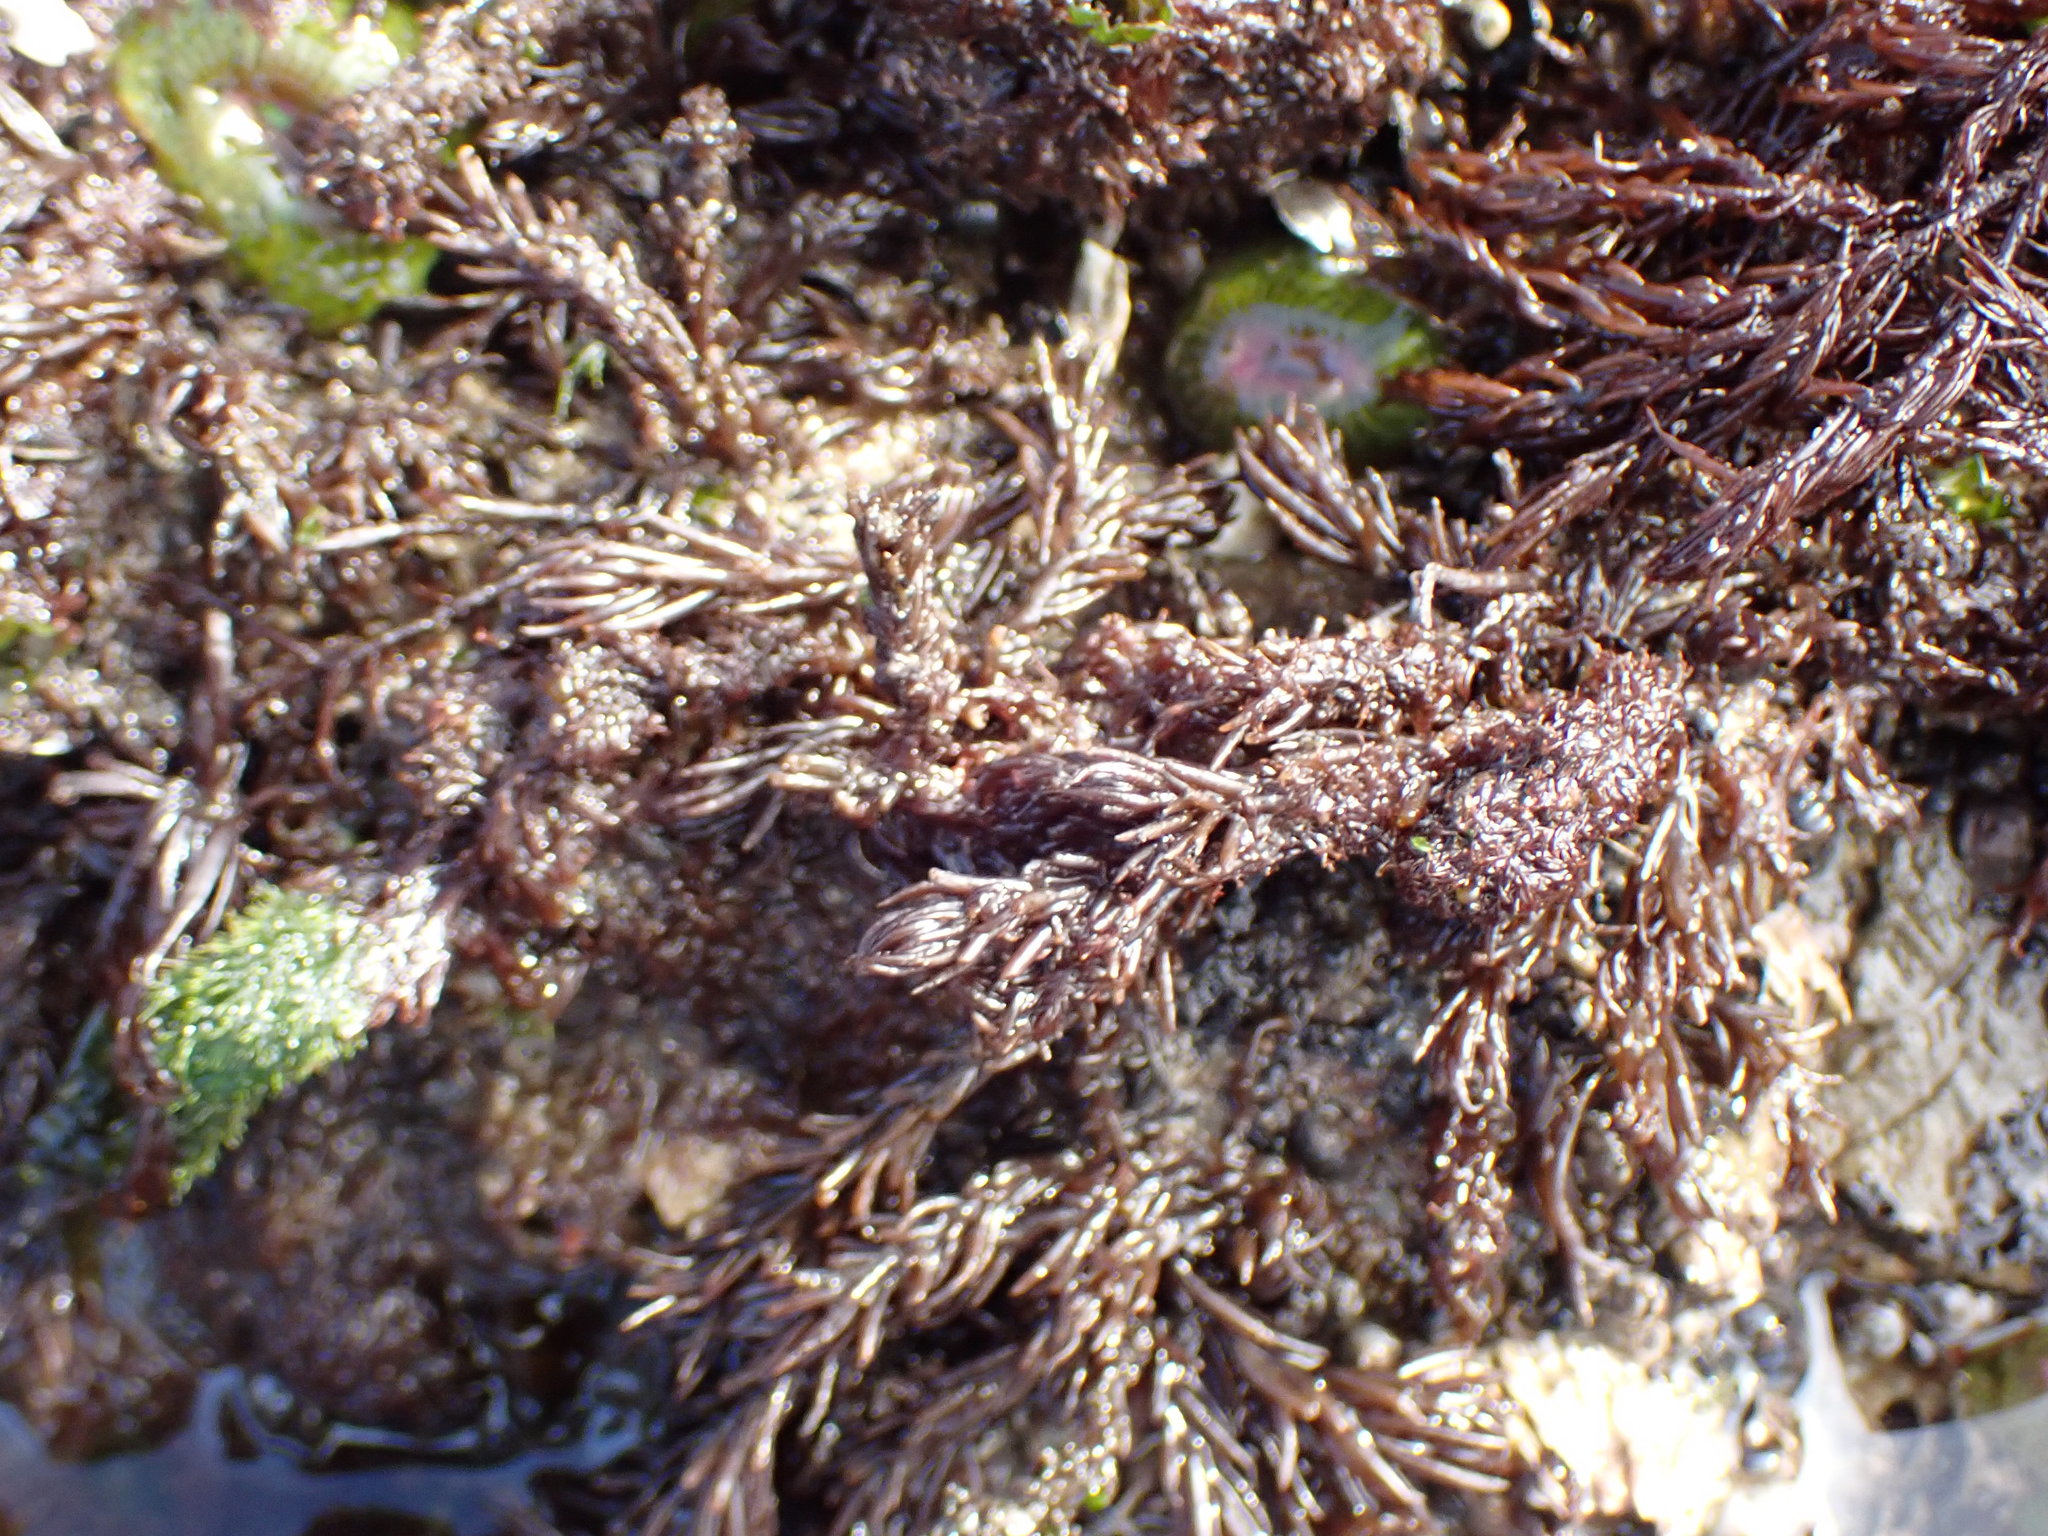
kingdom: Plantae
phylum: Rhodophyta
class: Florideophyceae
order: Ceramiales
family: Rhodomelaceae
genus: Neorhodomela
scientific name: Neorhodomela larix
